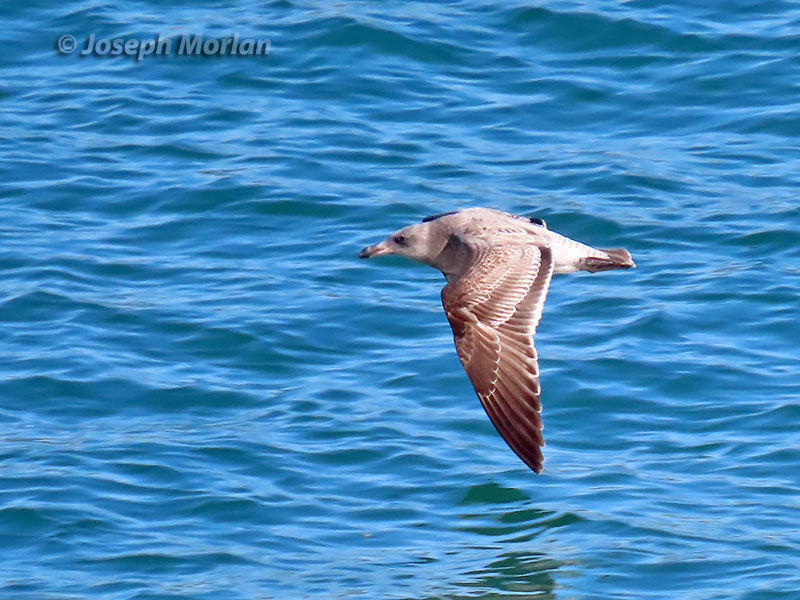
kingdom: Animalia
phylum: Chordata
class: Aves
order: Charadriiformes
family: Laridae
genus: Larus
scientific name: Larus occidentalis
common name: Western gull
